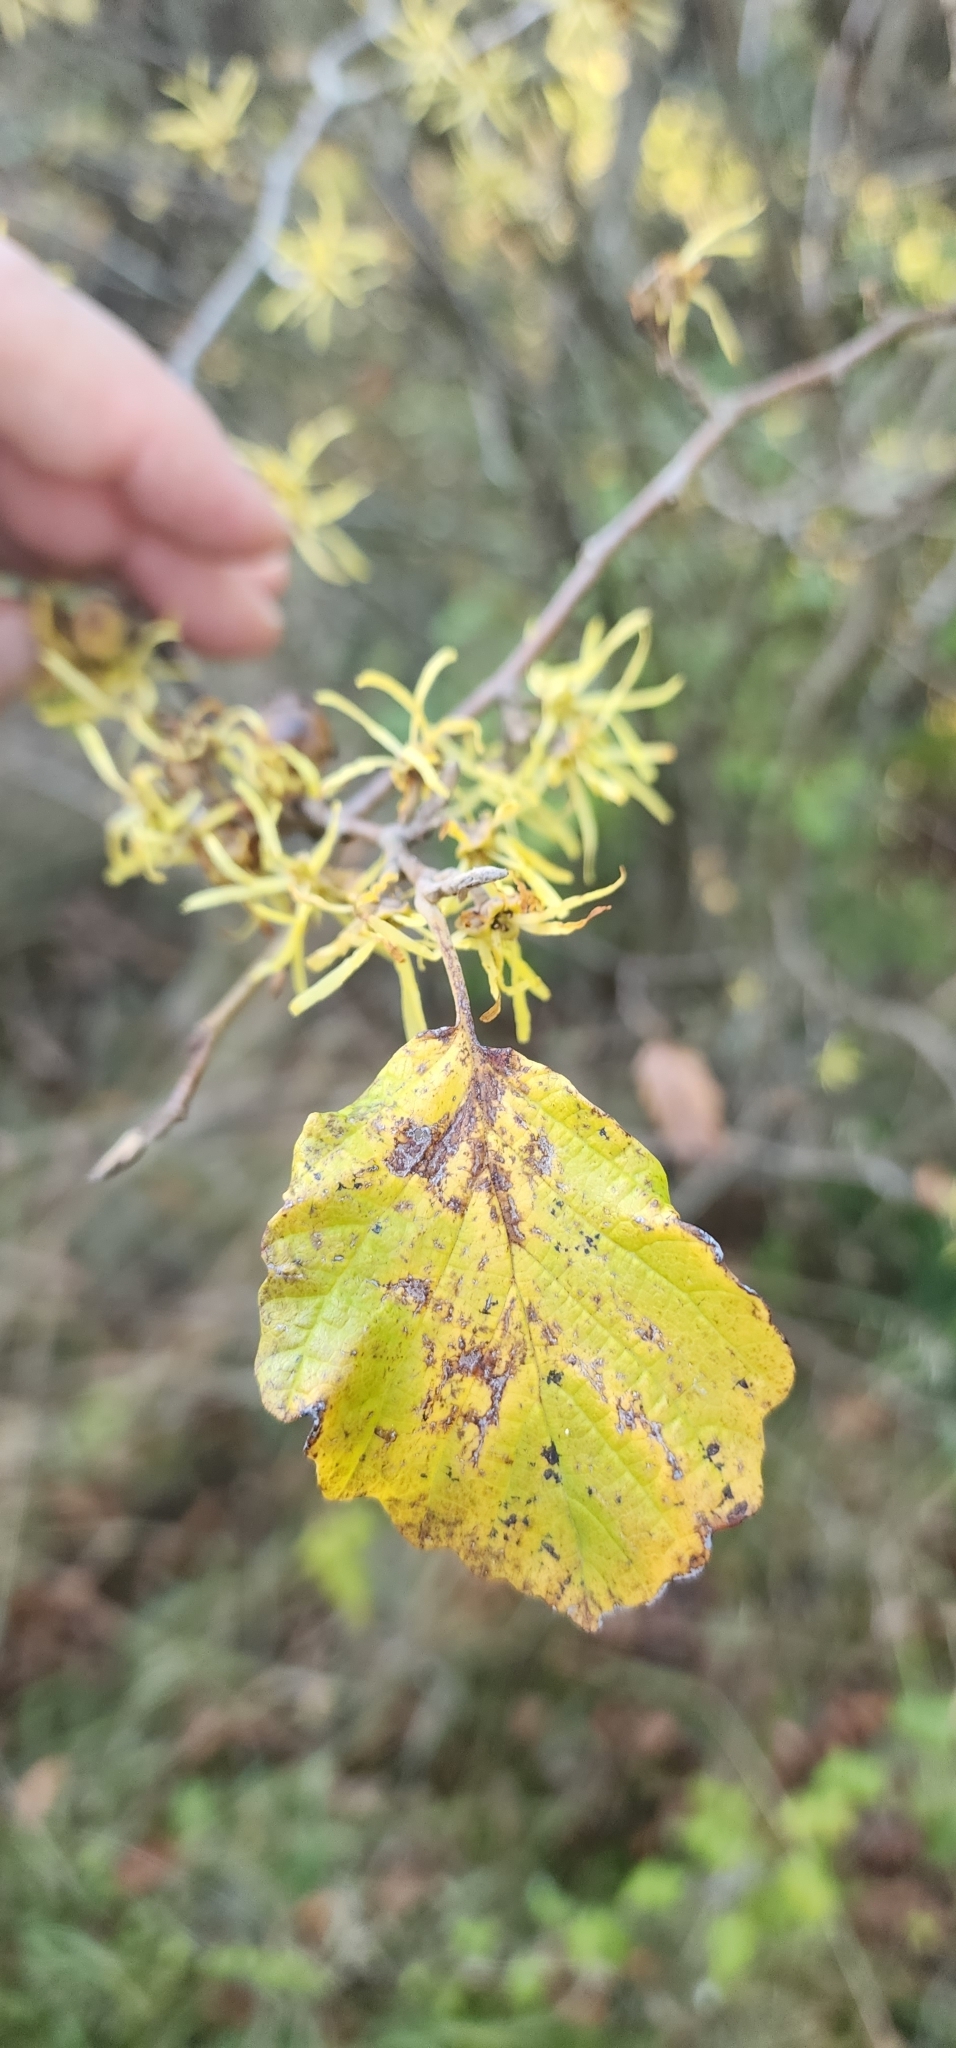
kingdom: Plantae
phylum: Tracheophyta
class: Magnoliopsida
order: Saxifragales
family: Hamamelidaceae
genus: Hamamelis
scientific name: Hamamelis virginiana
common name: Witch-hazel
